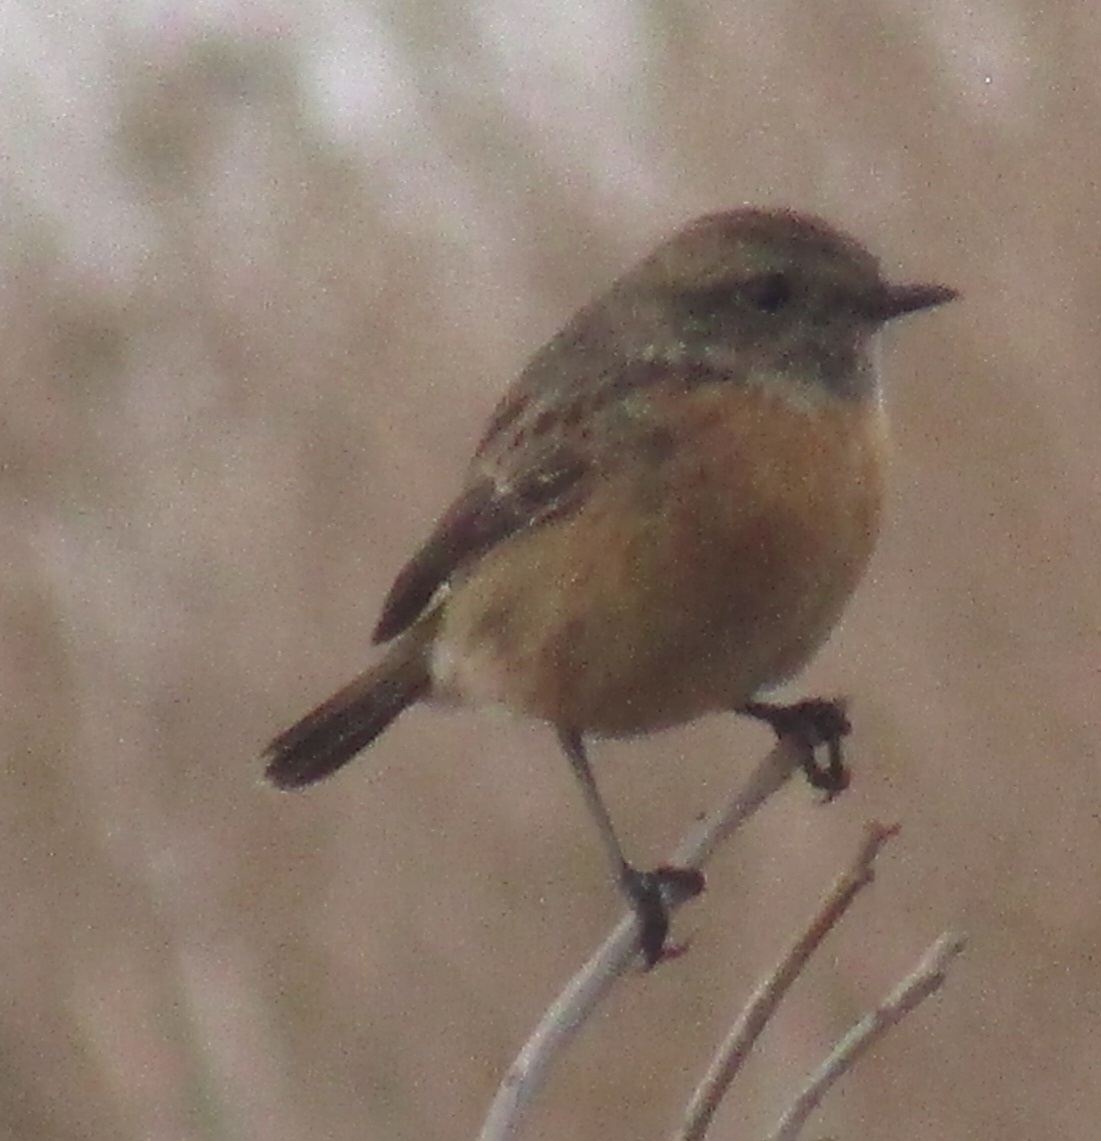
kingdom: Animalia
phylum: Chordata
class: Aves
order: Passeriformes
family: Muscicapidae
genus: Saxicola
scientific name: Saxicola rubicola
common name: European stonechat
